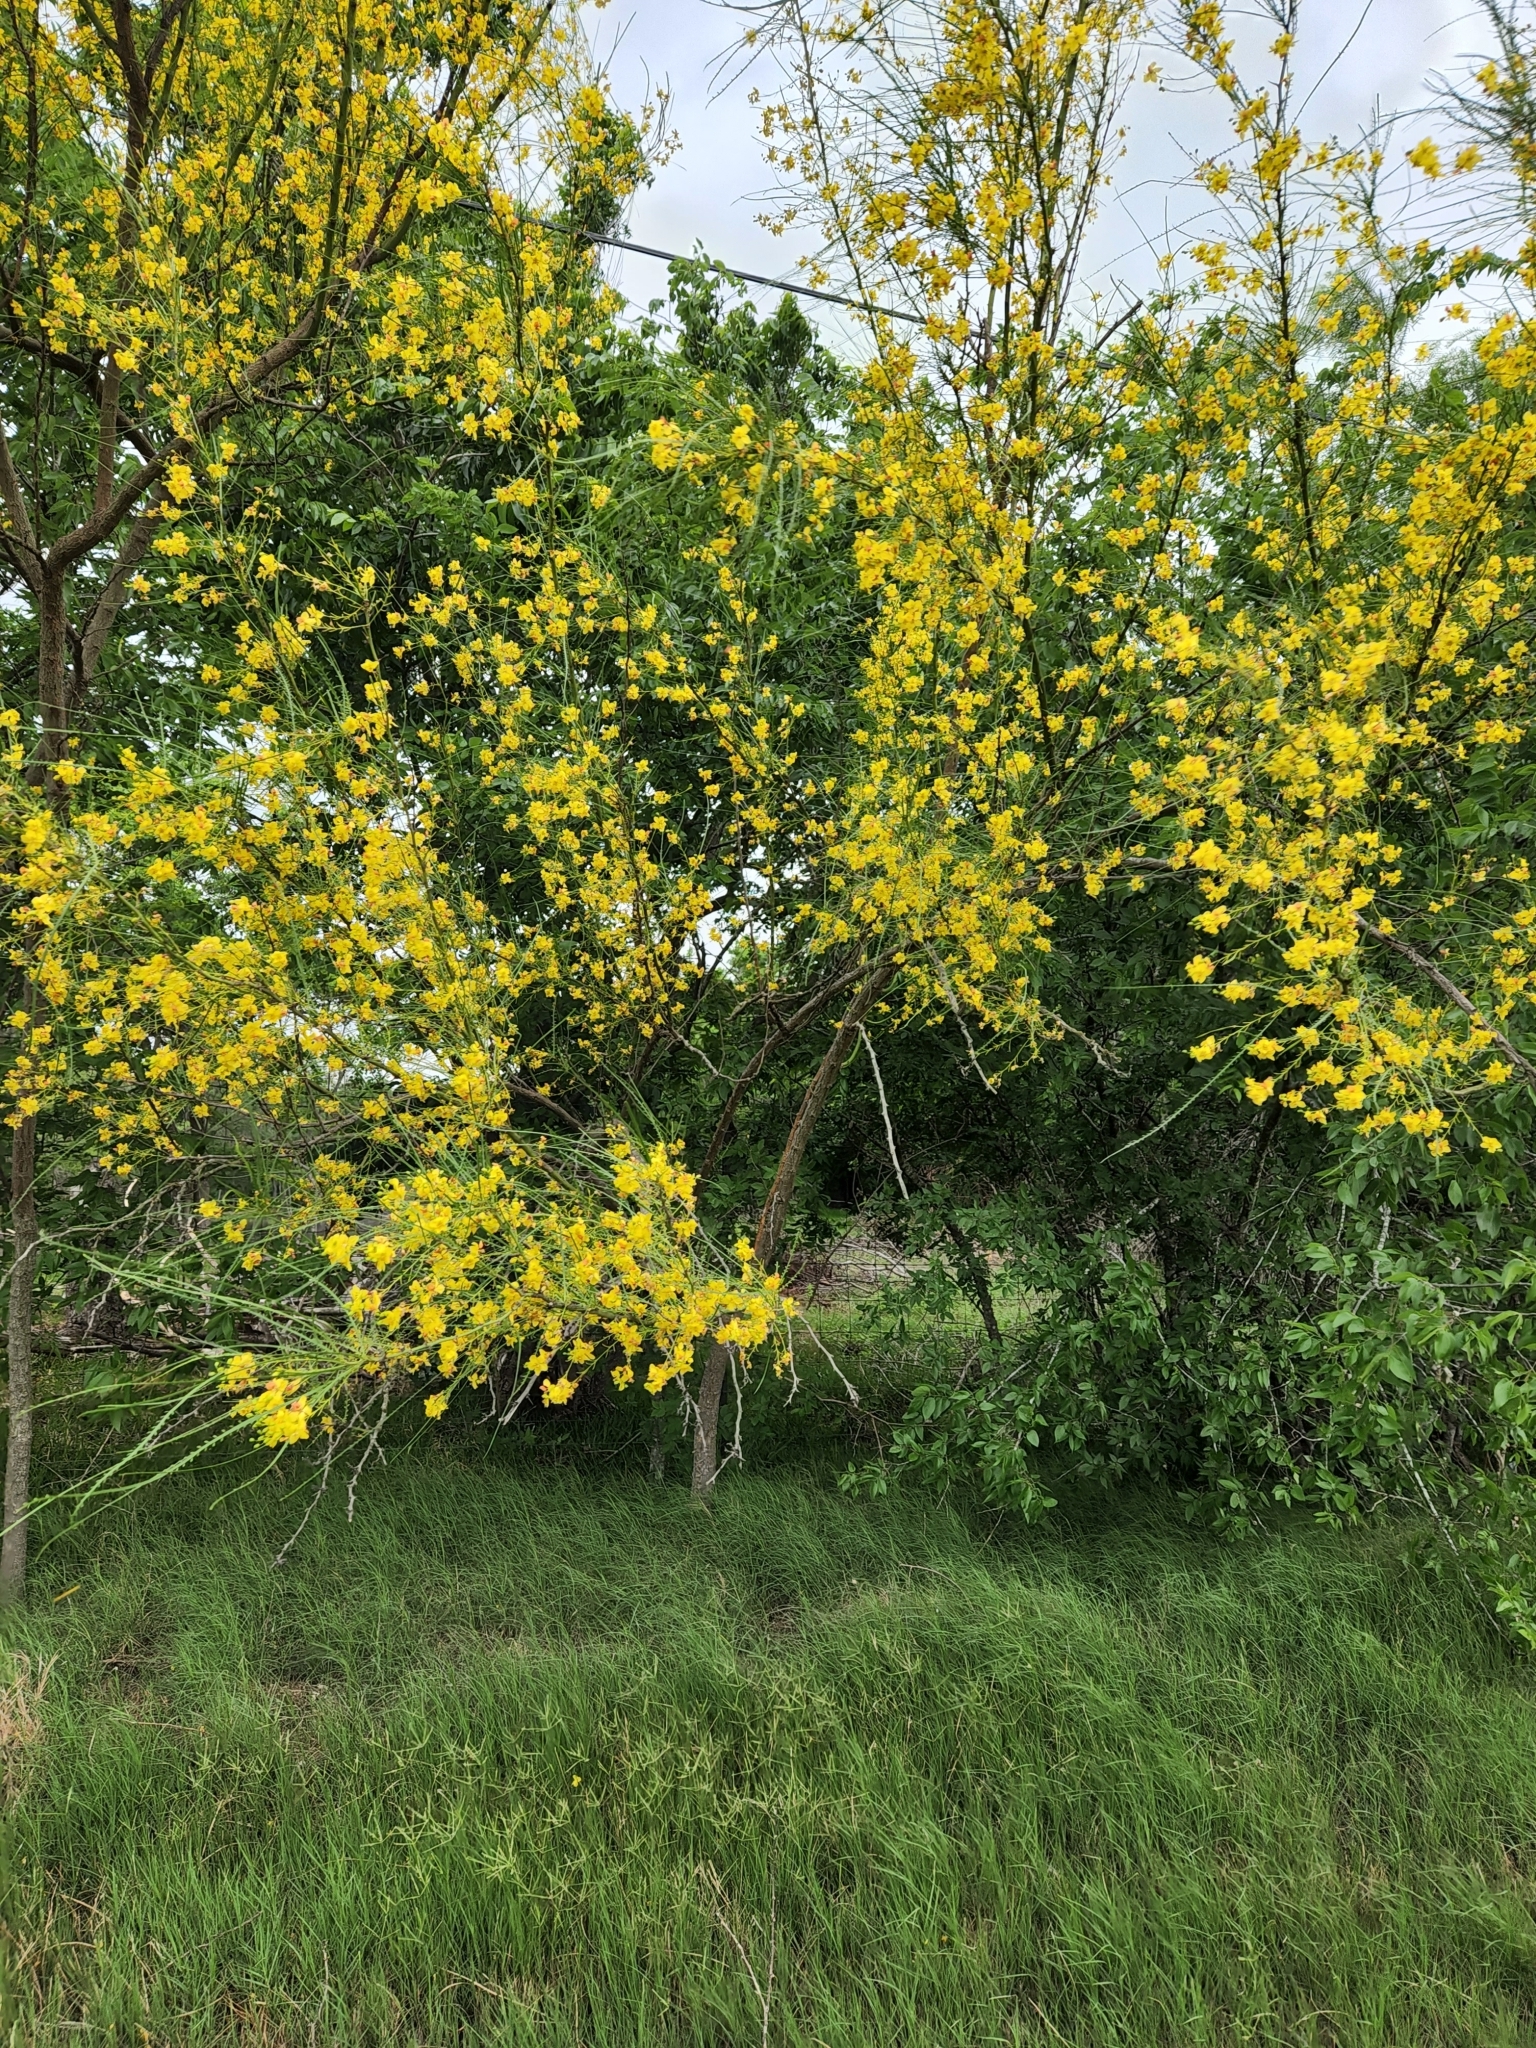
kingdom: Plantae
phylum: Tracheophyta
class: Magnoliopsida
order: Fabales
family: Fabaceae
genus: Parkinsonia
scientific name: Parkinsonia aculeata
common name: Jerusalem thorn
